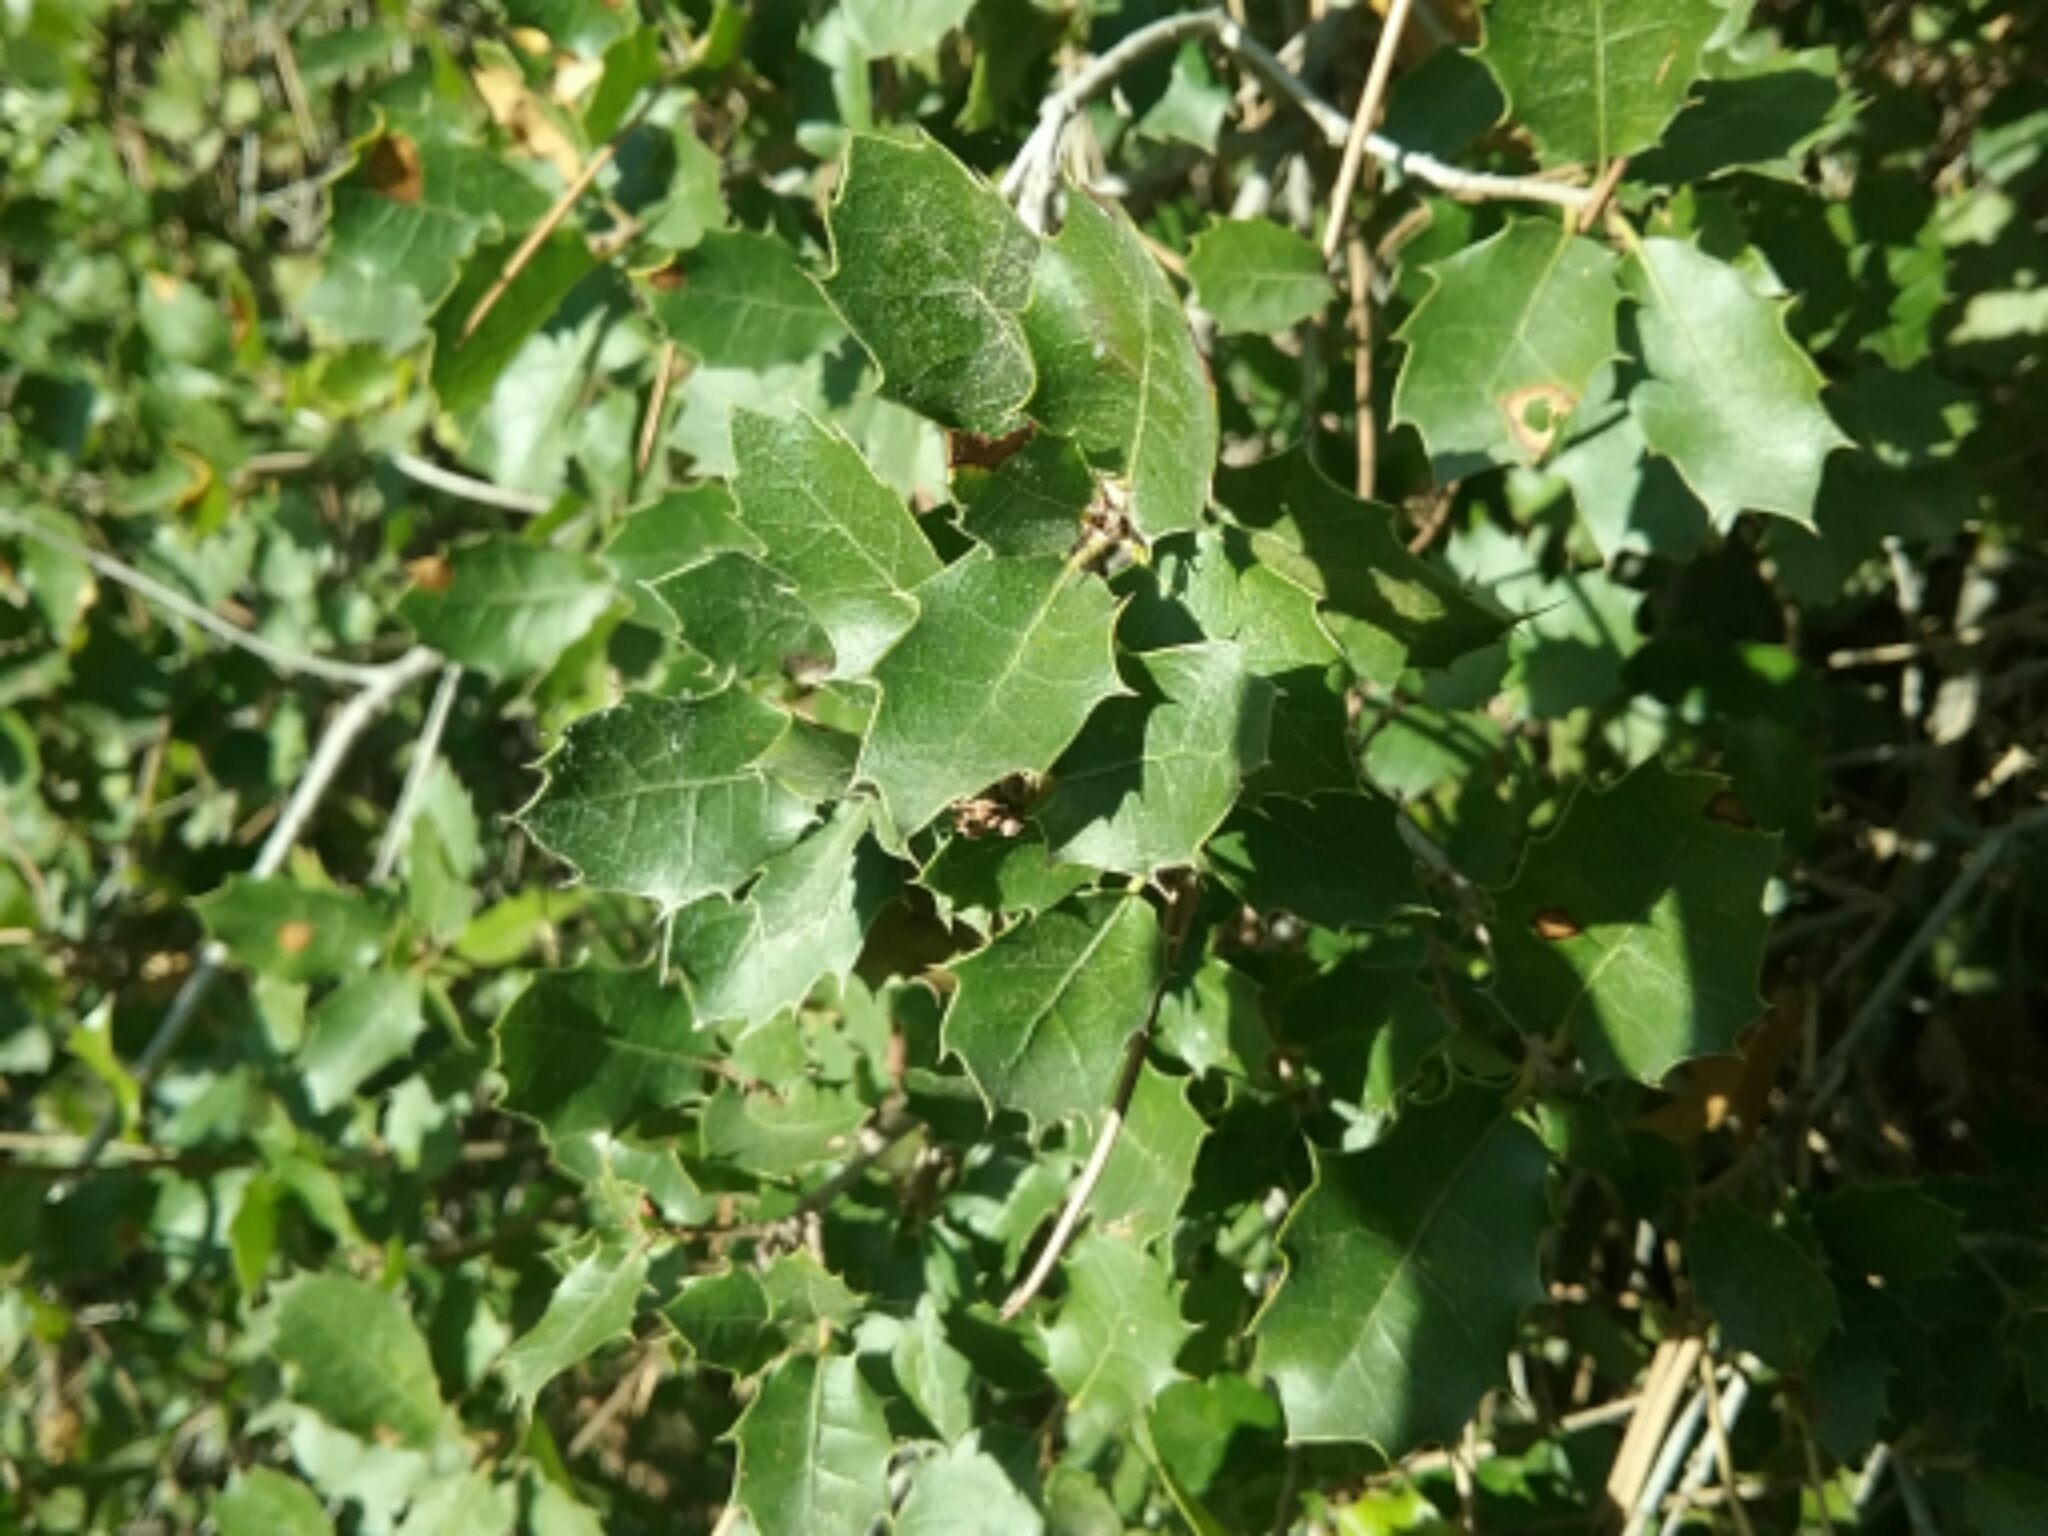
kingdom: Plantae
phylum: Tracheophyta
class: Magnoliopsida
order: Fagales
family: Fagaceae
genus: Quercus
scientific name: Quercus coccifera
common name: Kermes oak
